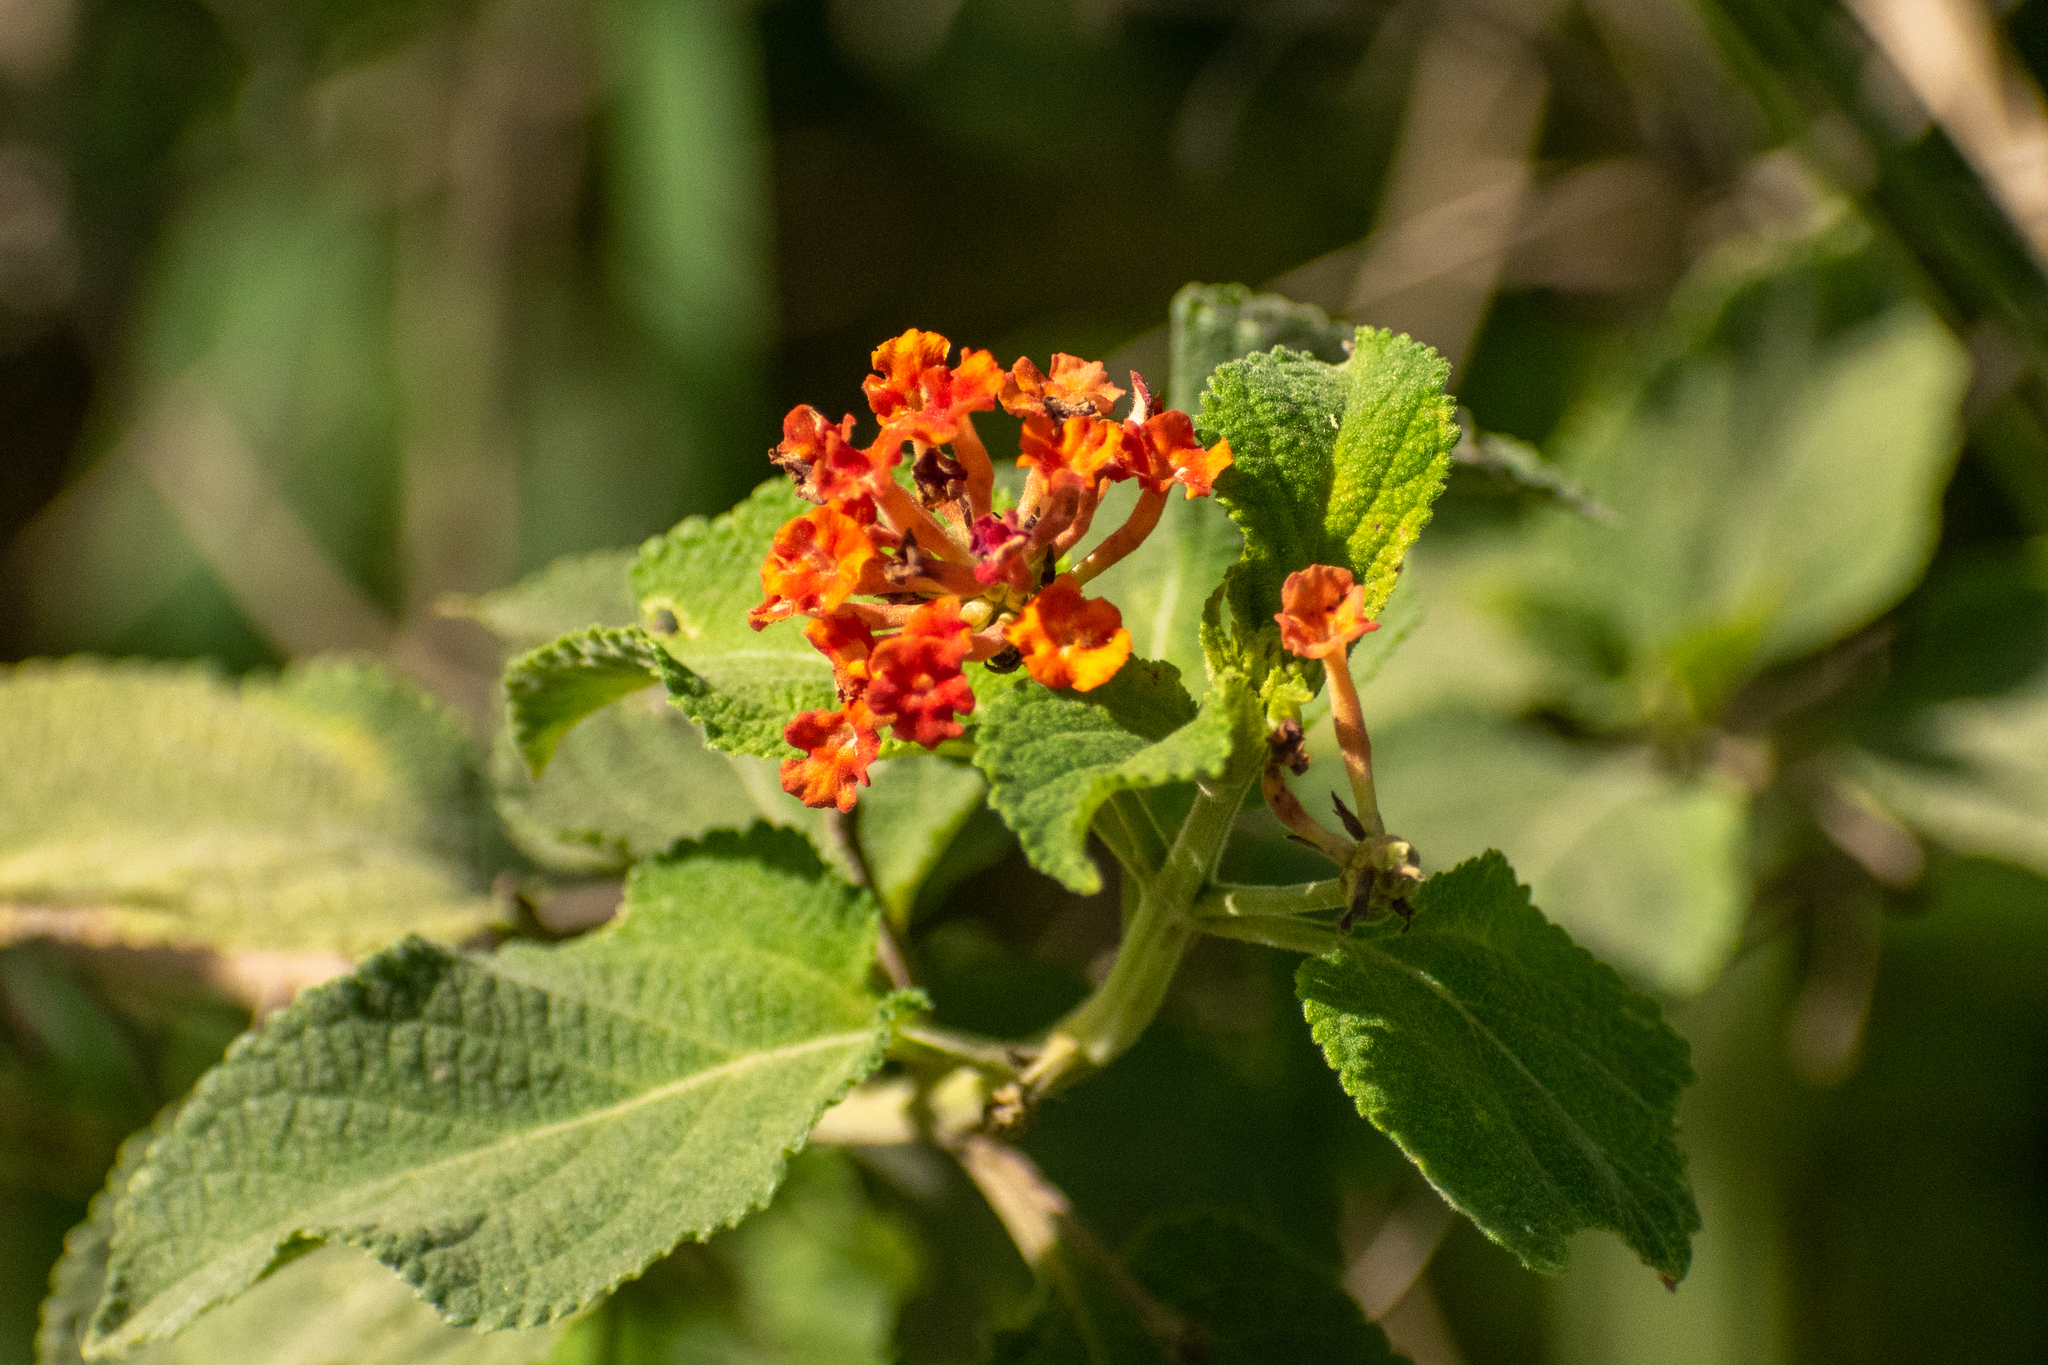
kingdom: Plantae
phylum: Tracheophyta
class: Magnoliopsida
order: Lamiales
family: Verbenaceae
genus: Lantana
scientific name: Lantana camara
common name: Lantana
